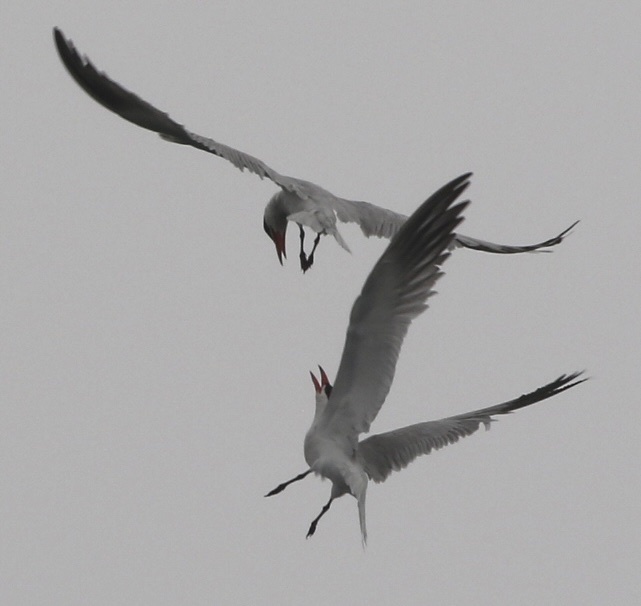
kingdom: Animalia
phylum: Chordata
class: Aves
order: Charadriiformes
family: Laridae
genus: Hydroprogne
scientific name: Hydroprogne caspia
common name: Caspian tern
